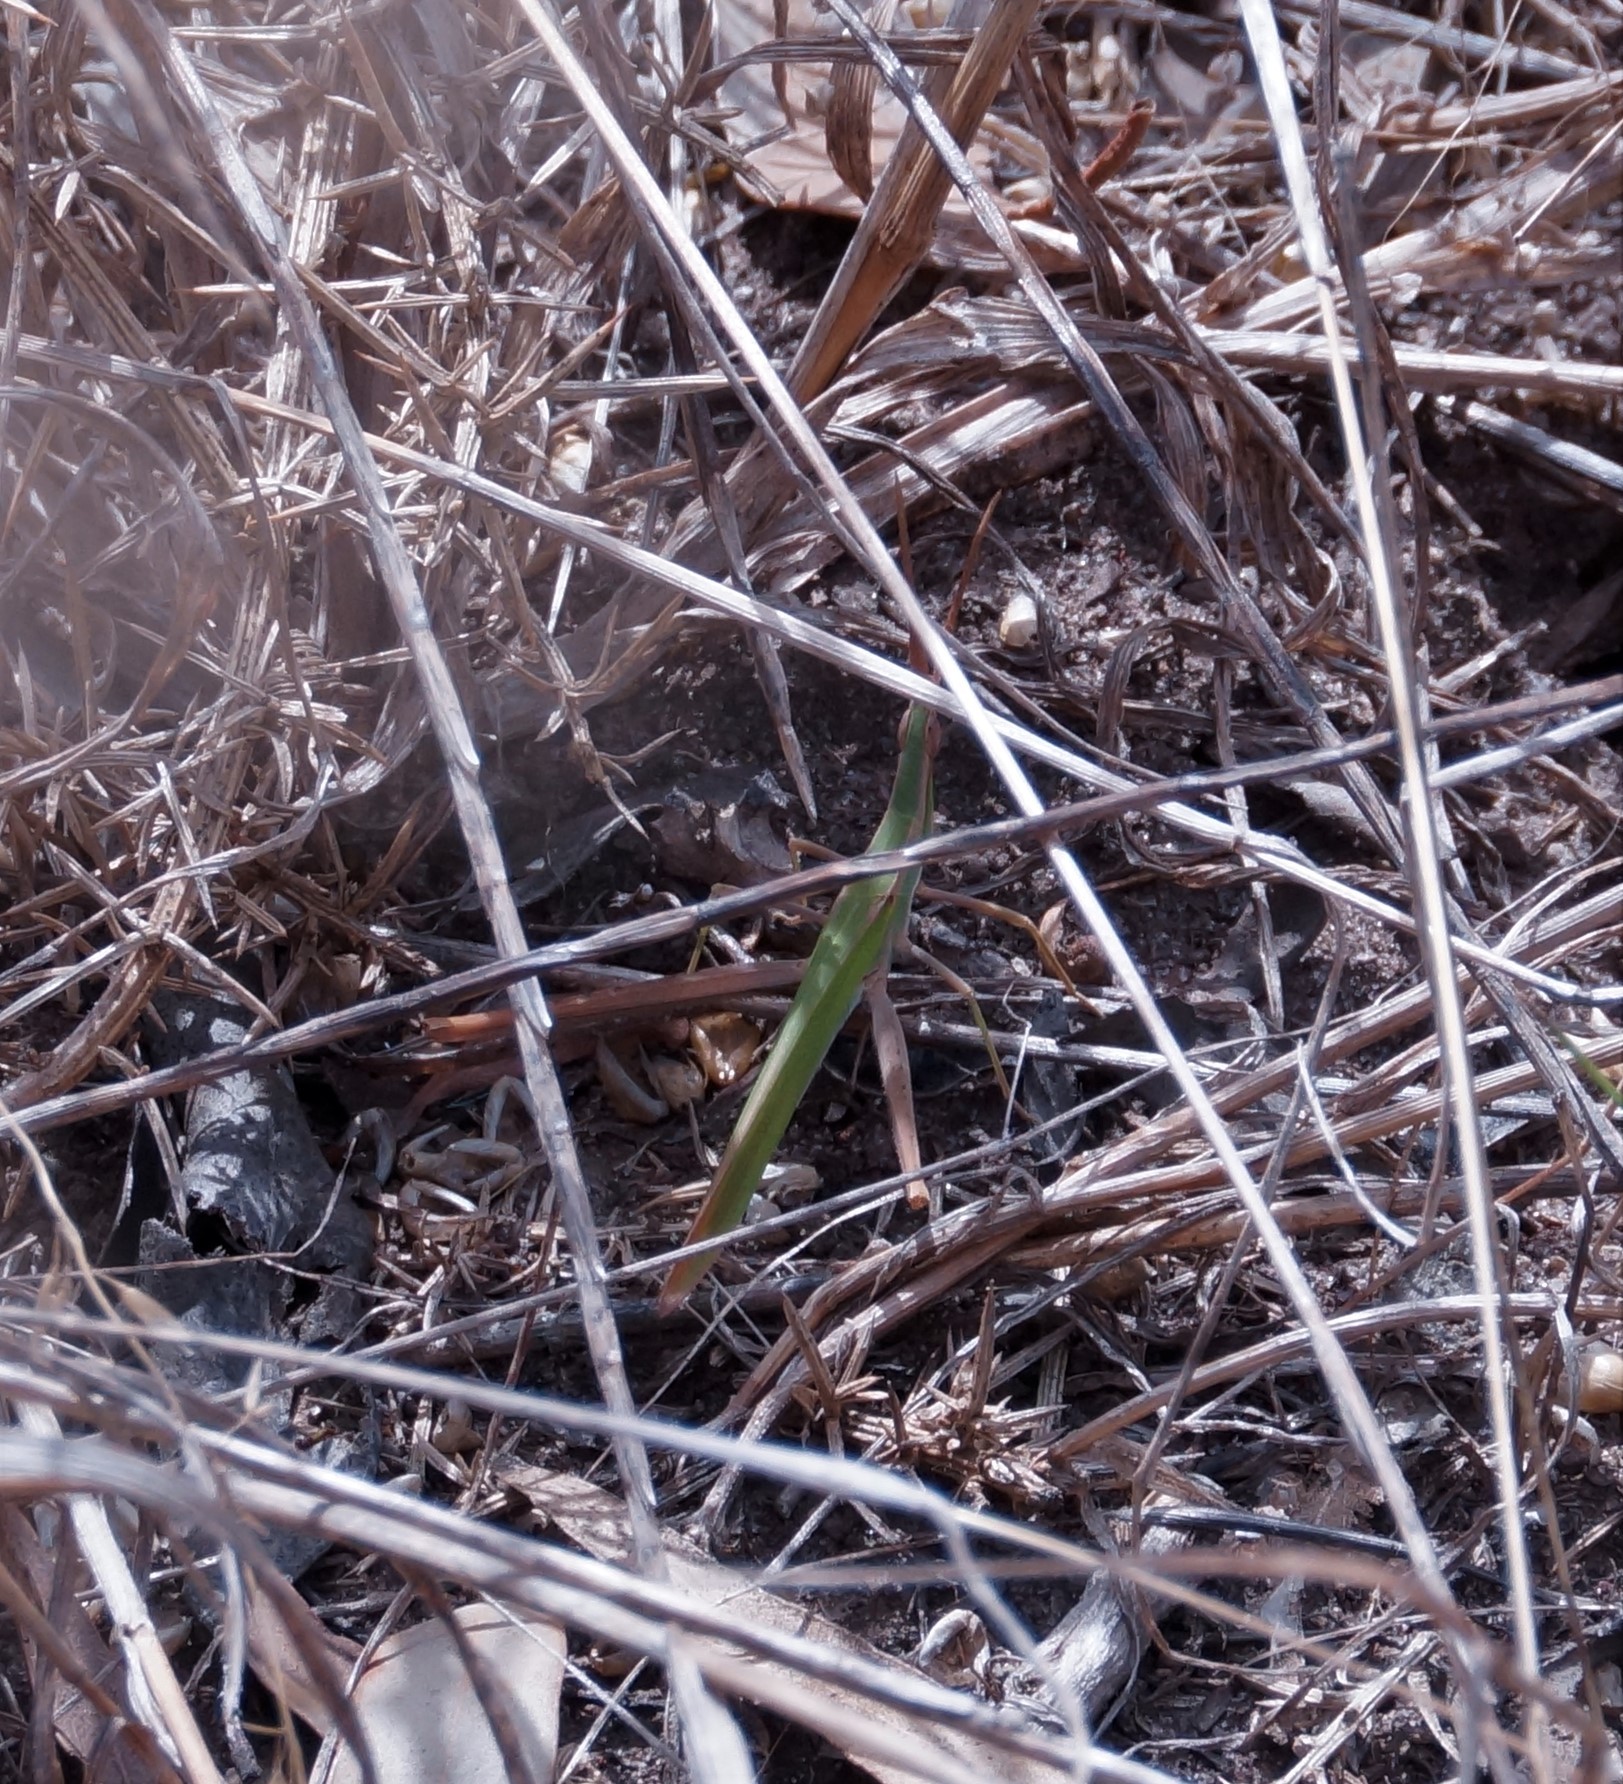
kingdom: Animalia
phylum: Arthropoda
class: Insecta
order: Orthoptera
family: Acrididae
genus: Acrida
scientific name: Acrida conica
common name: Giant green slantface
